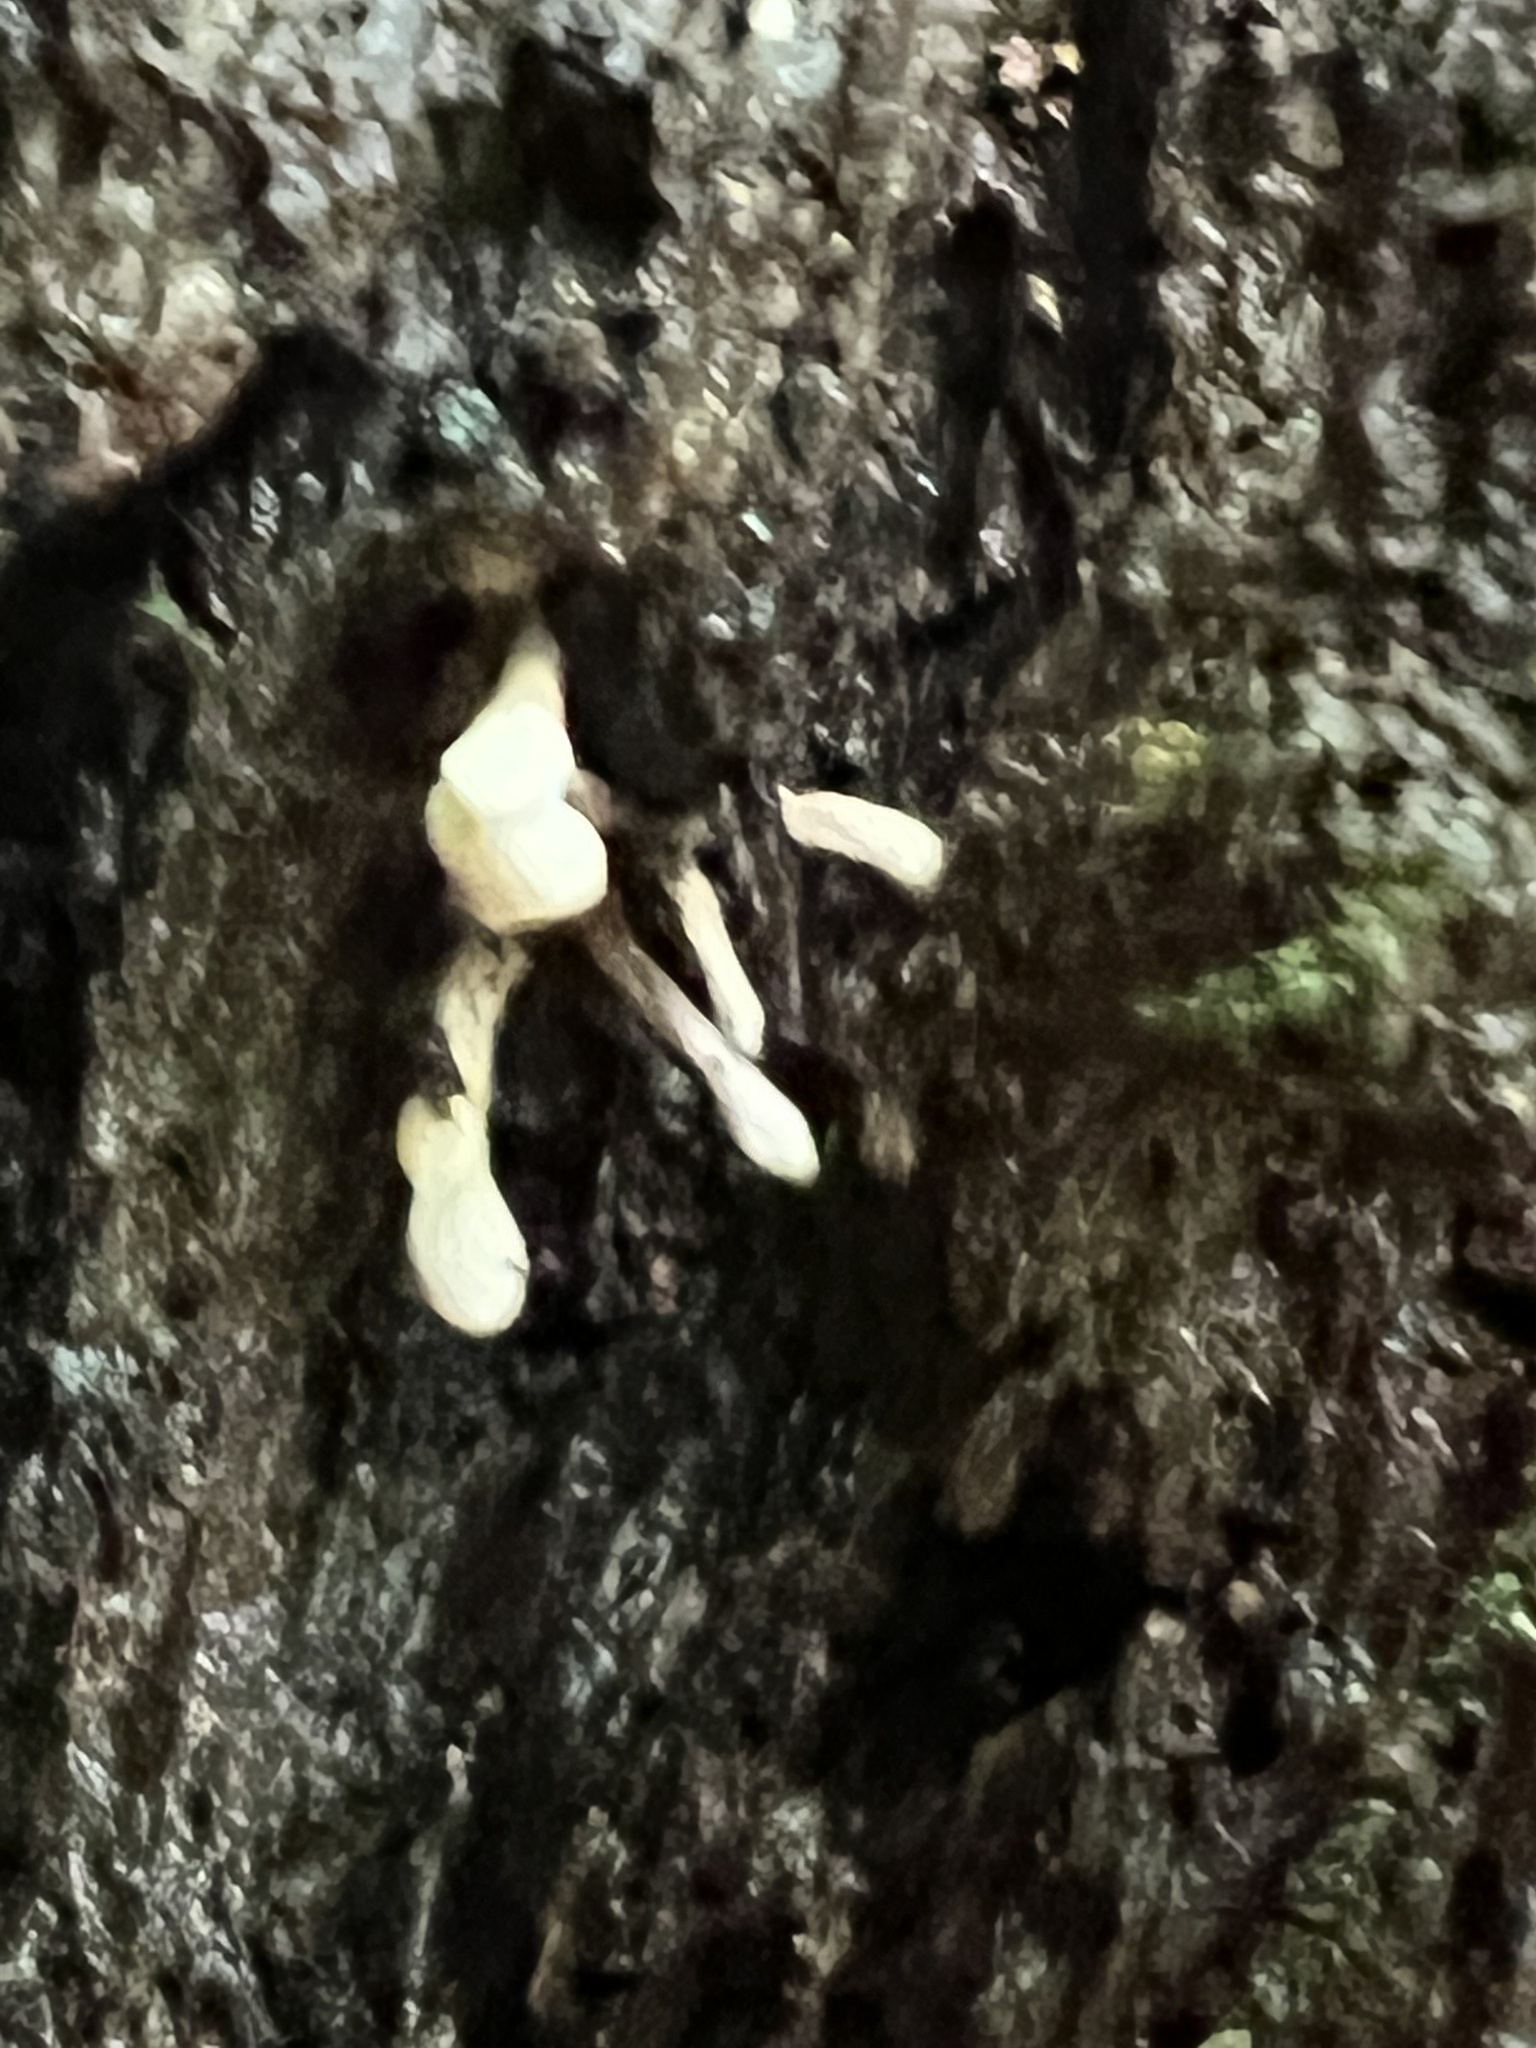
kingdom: Fungi
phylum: Basidiomycota
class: Atractiellomycetes
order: Atractiellales
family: Phleogenaceae
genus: Phleogena
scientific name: Phleogena faginea
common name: Fenugreek stalkball
